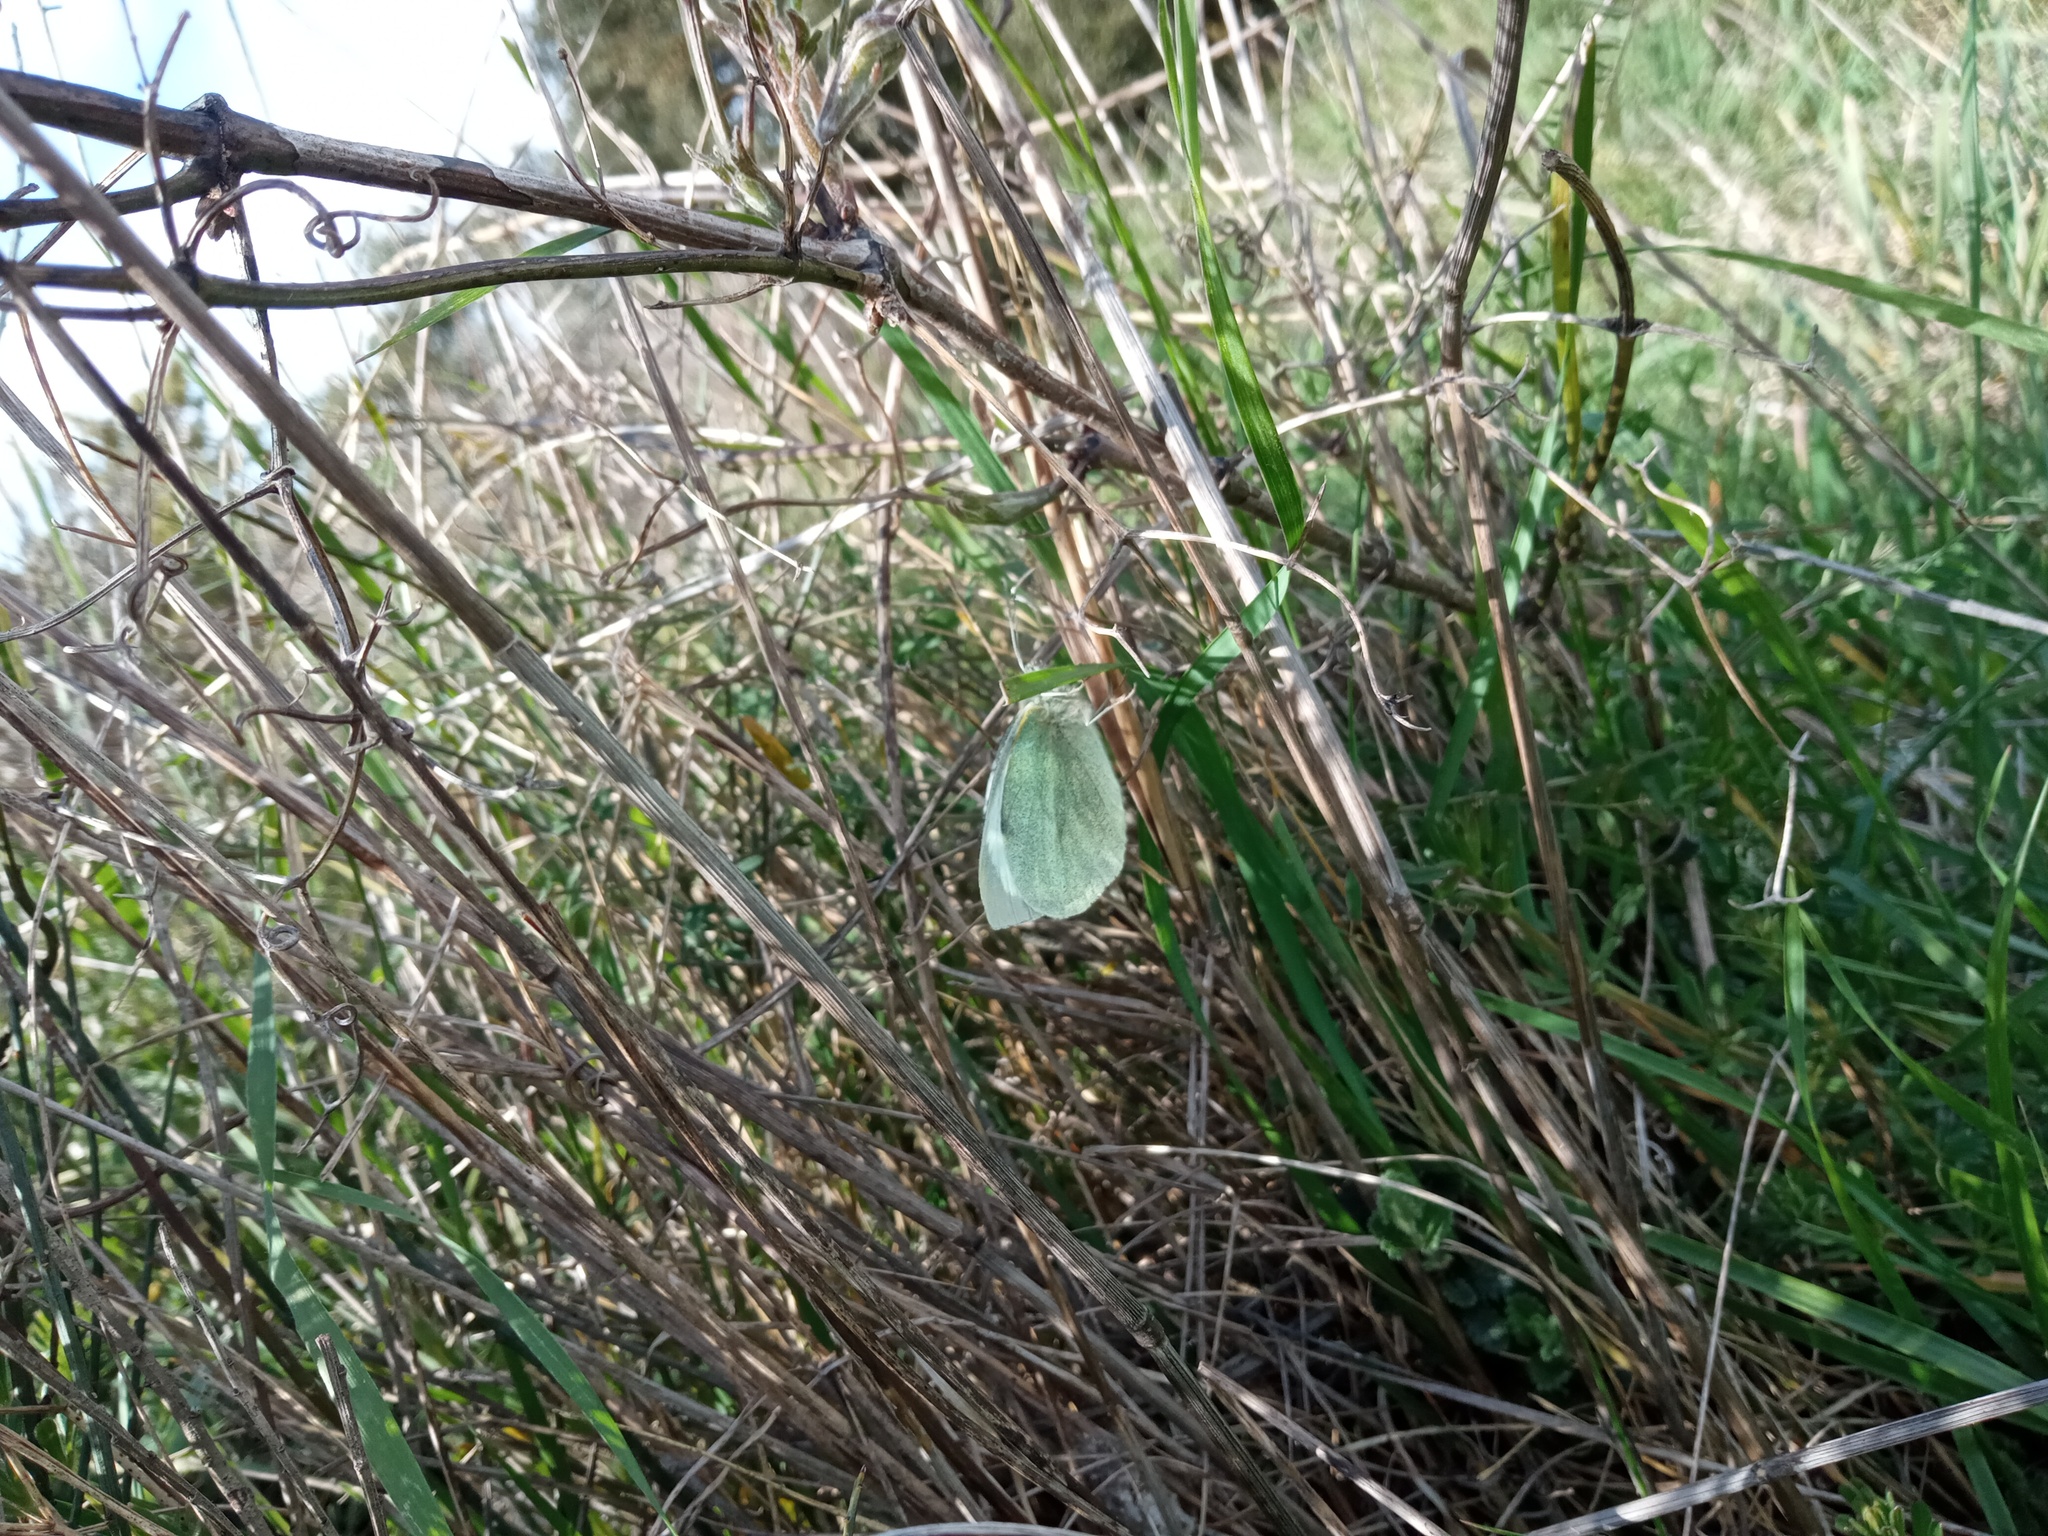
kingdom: Animalia
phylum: Arthropoda
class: Insecta
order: Lepidoptera
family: Pieridae
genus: Pieris
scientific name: Pieris brassicae
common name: Large white
